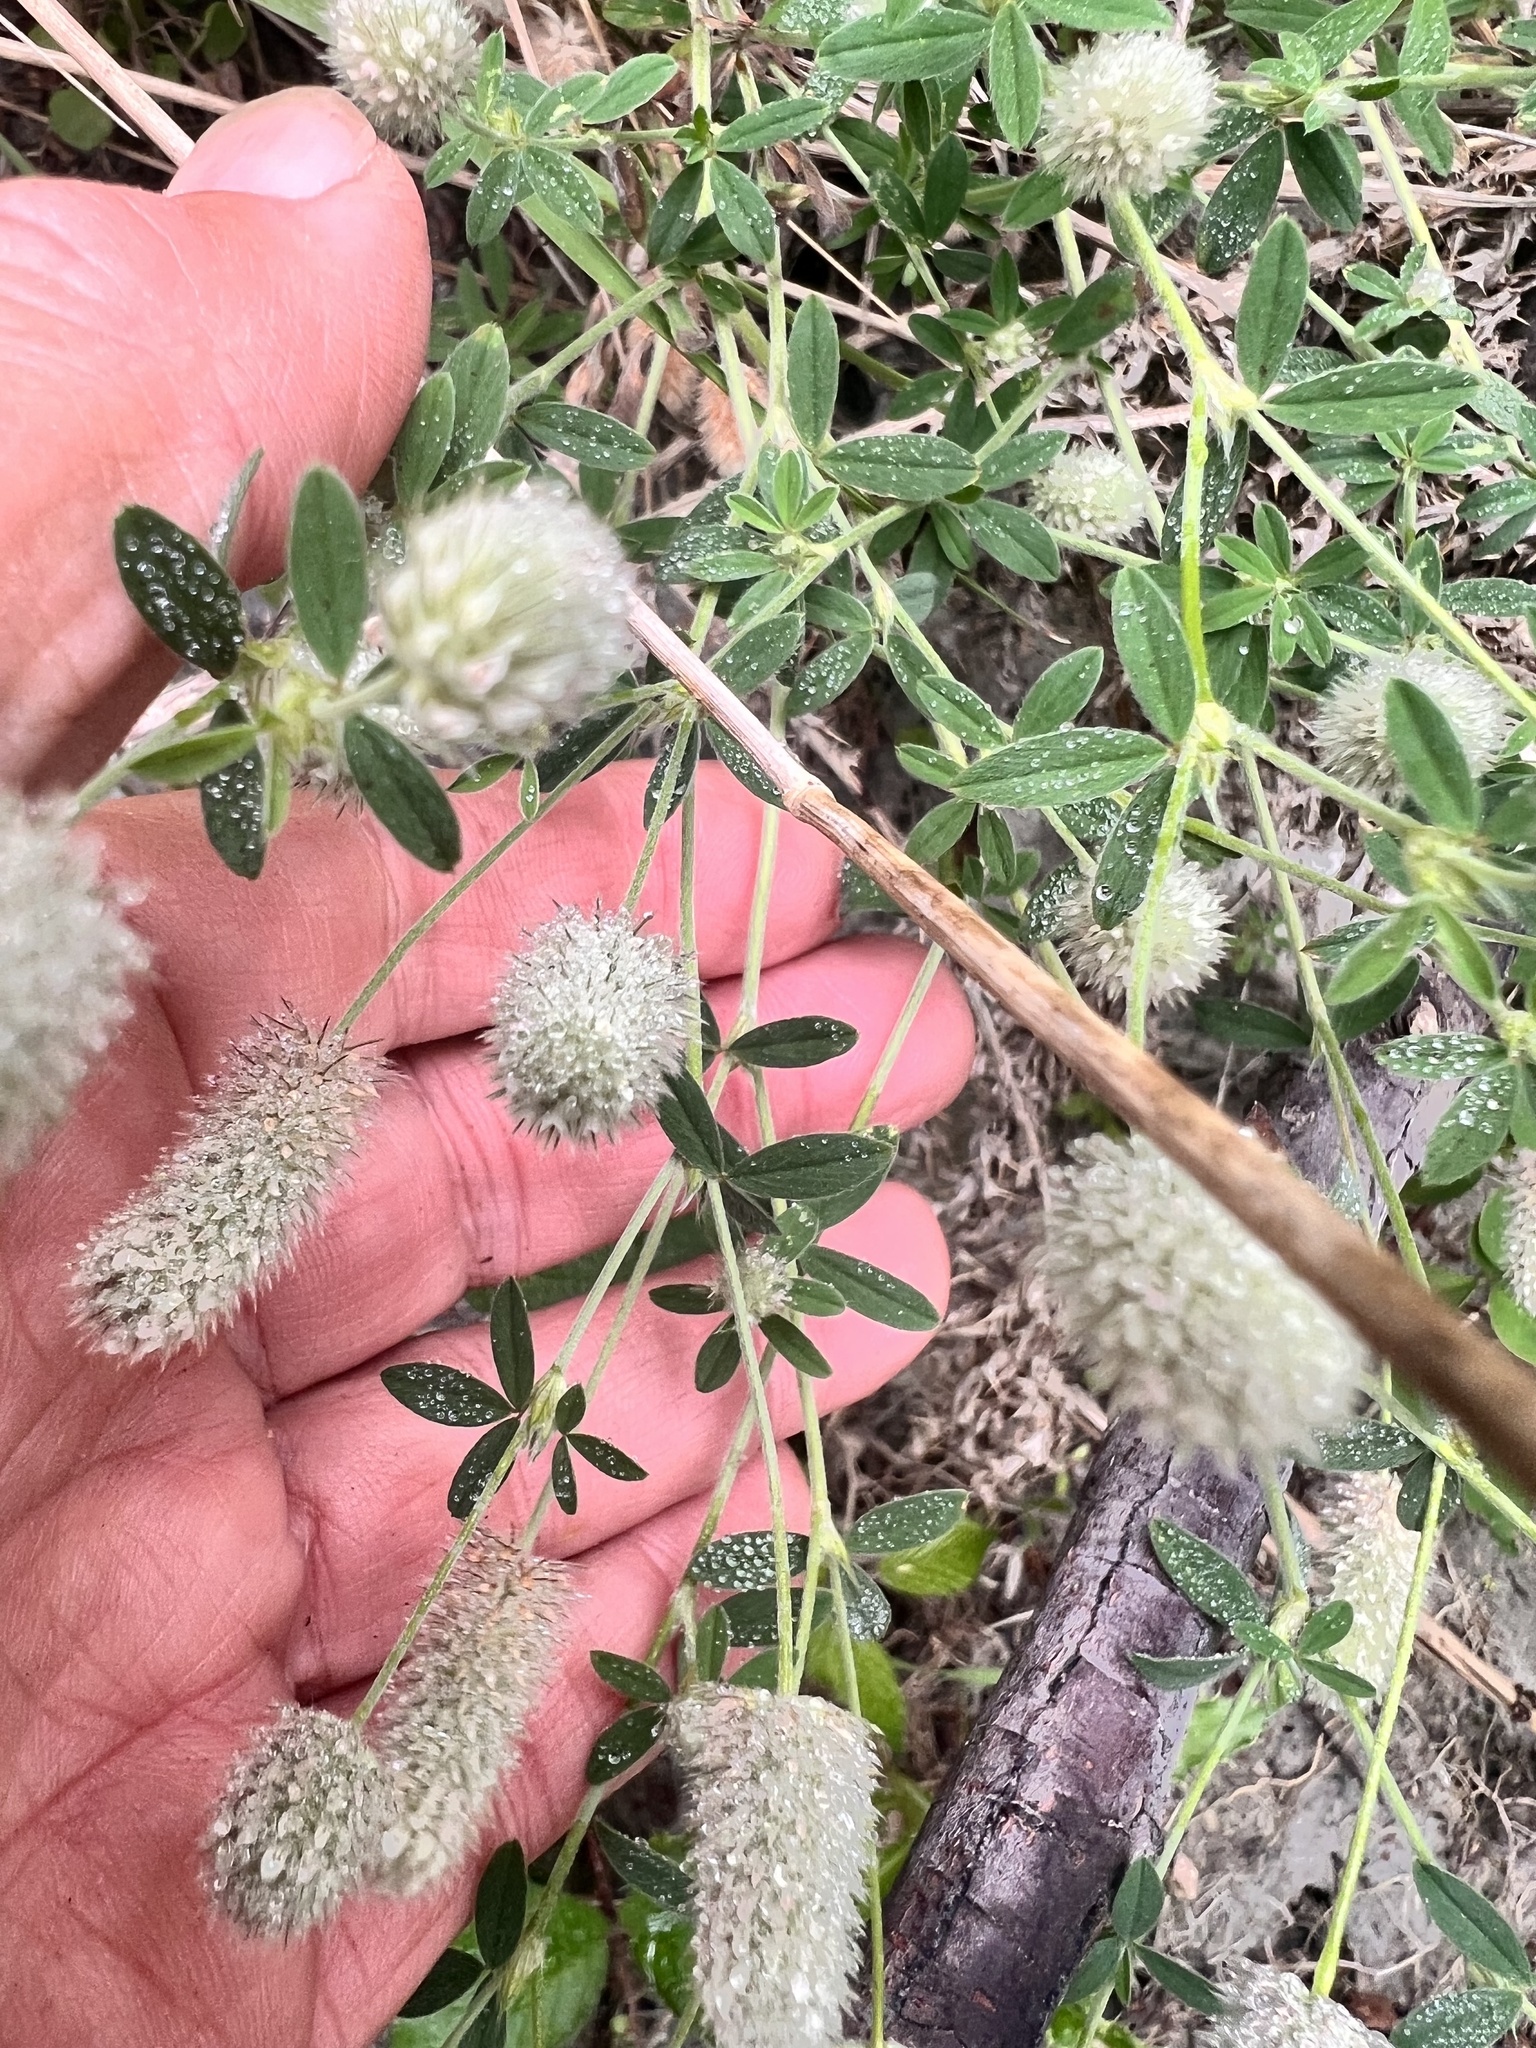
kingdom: Plantae
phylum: Tracheophyta
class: Magnoliopsida
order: Fabales
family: Fabaceae
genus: Trifolium
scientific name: Trifolium arvense
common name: Hare's-foot clover
